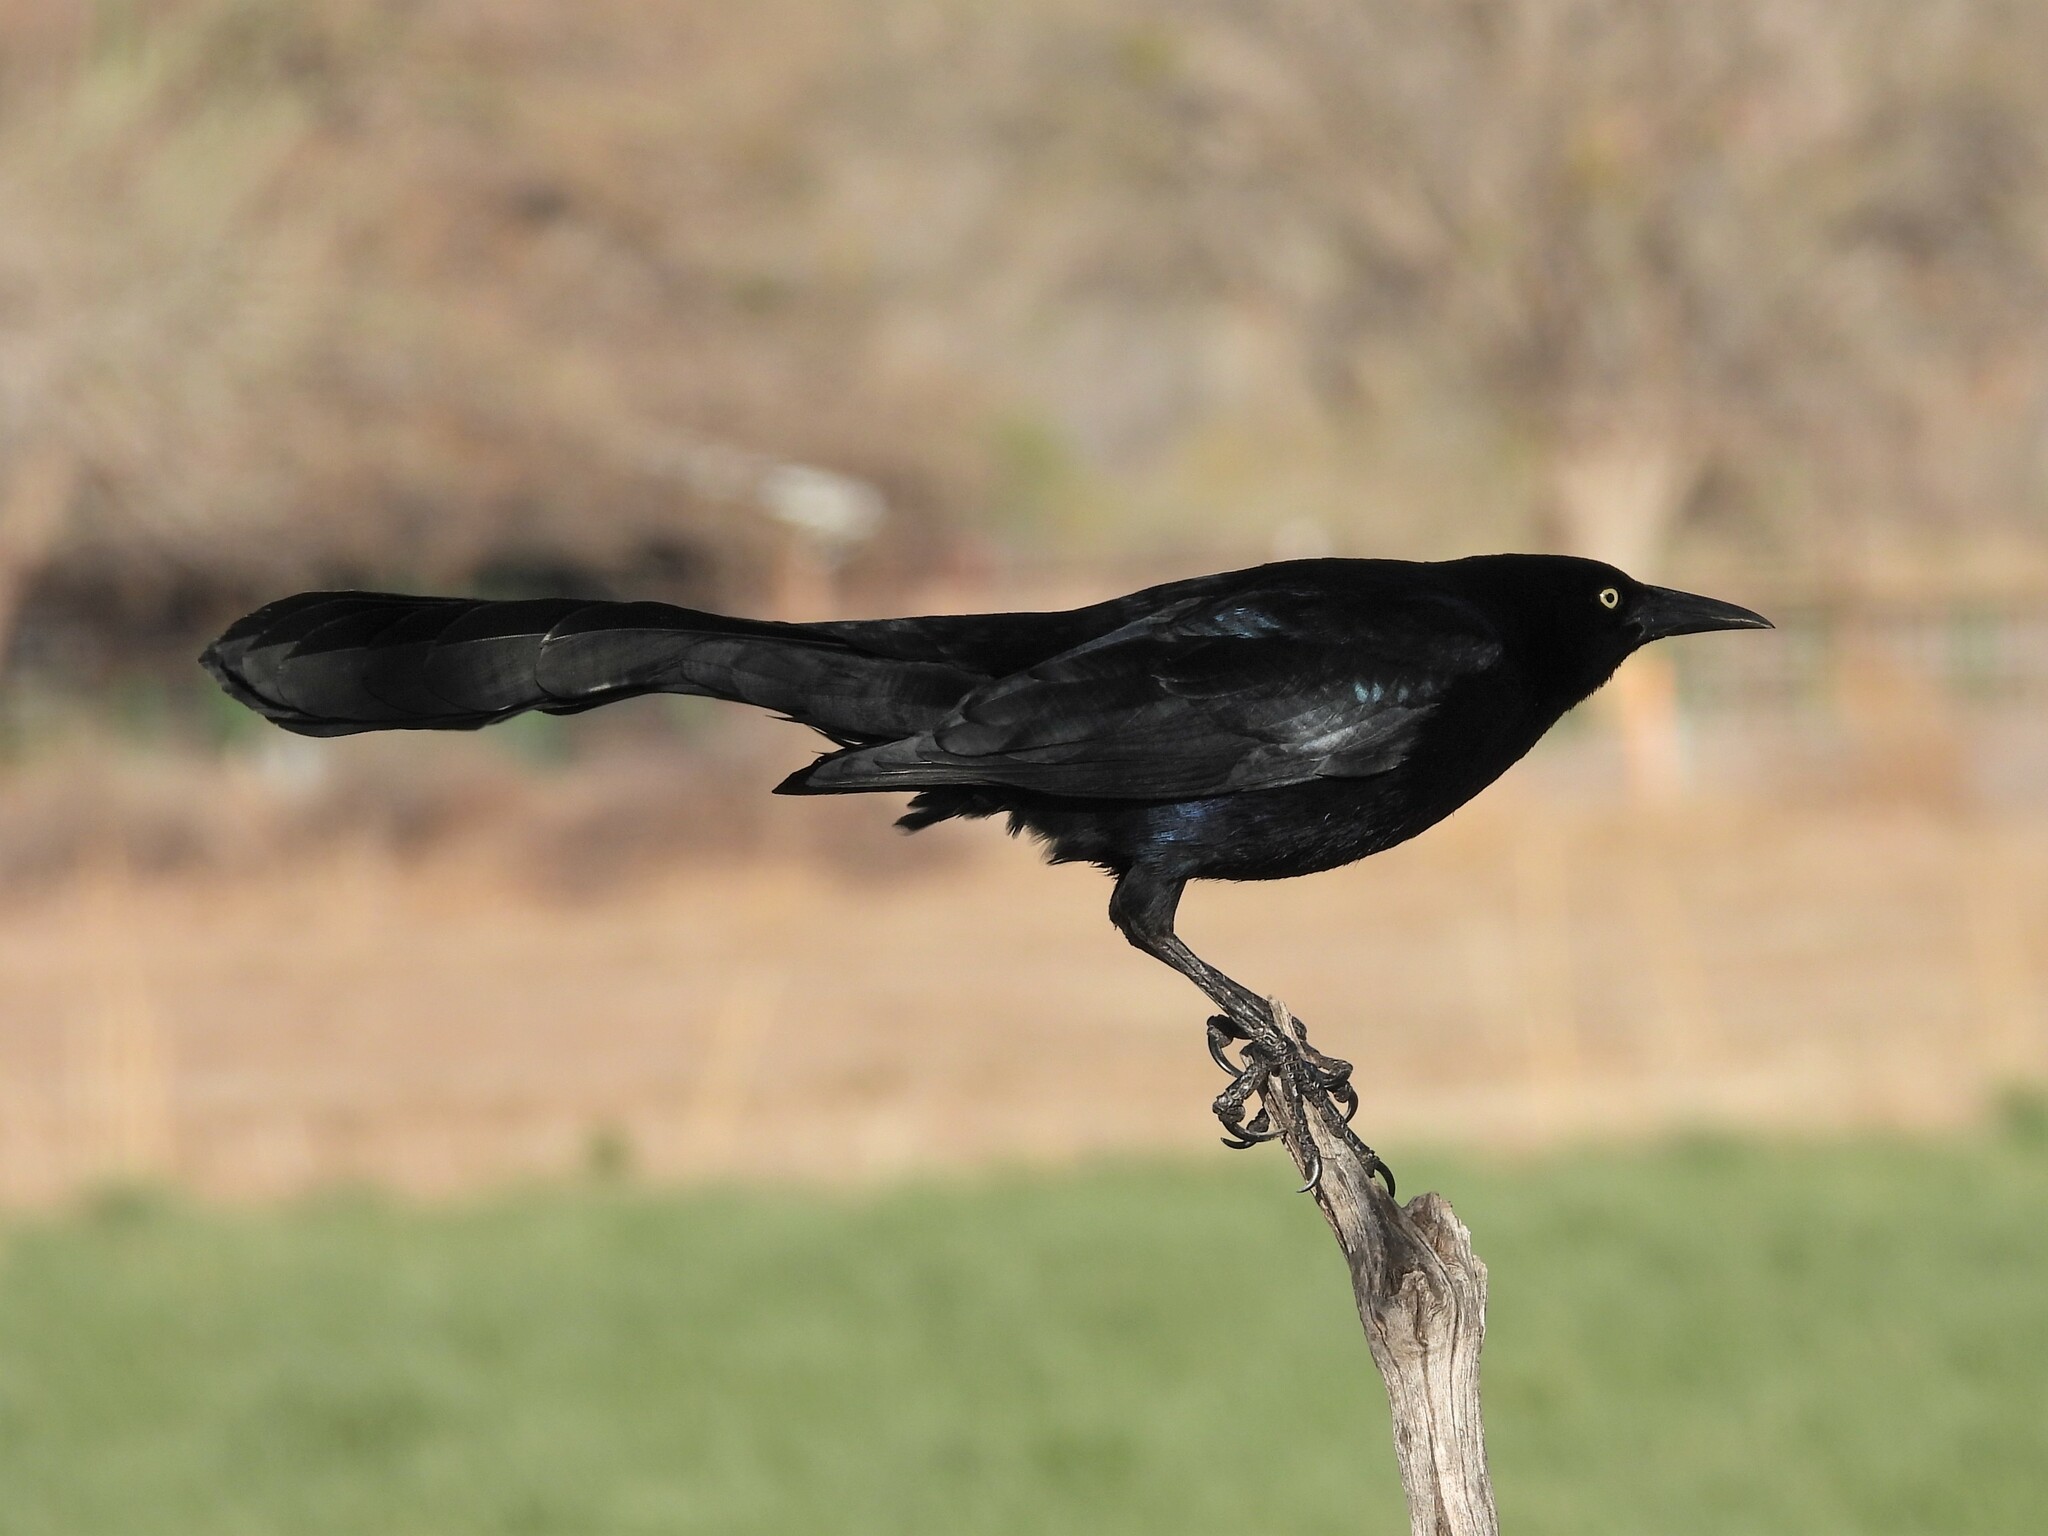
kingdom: Animalia
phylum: Chordata
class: Aves
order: Passeriformes
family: Icteridae
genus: Quiscalus
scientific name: Quiscalus mexicanus
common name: Great-tailed grackle
